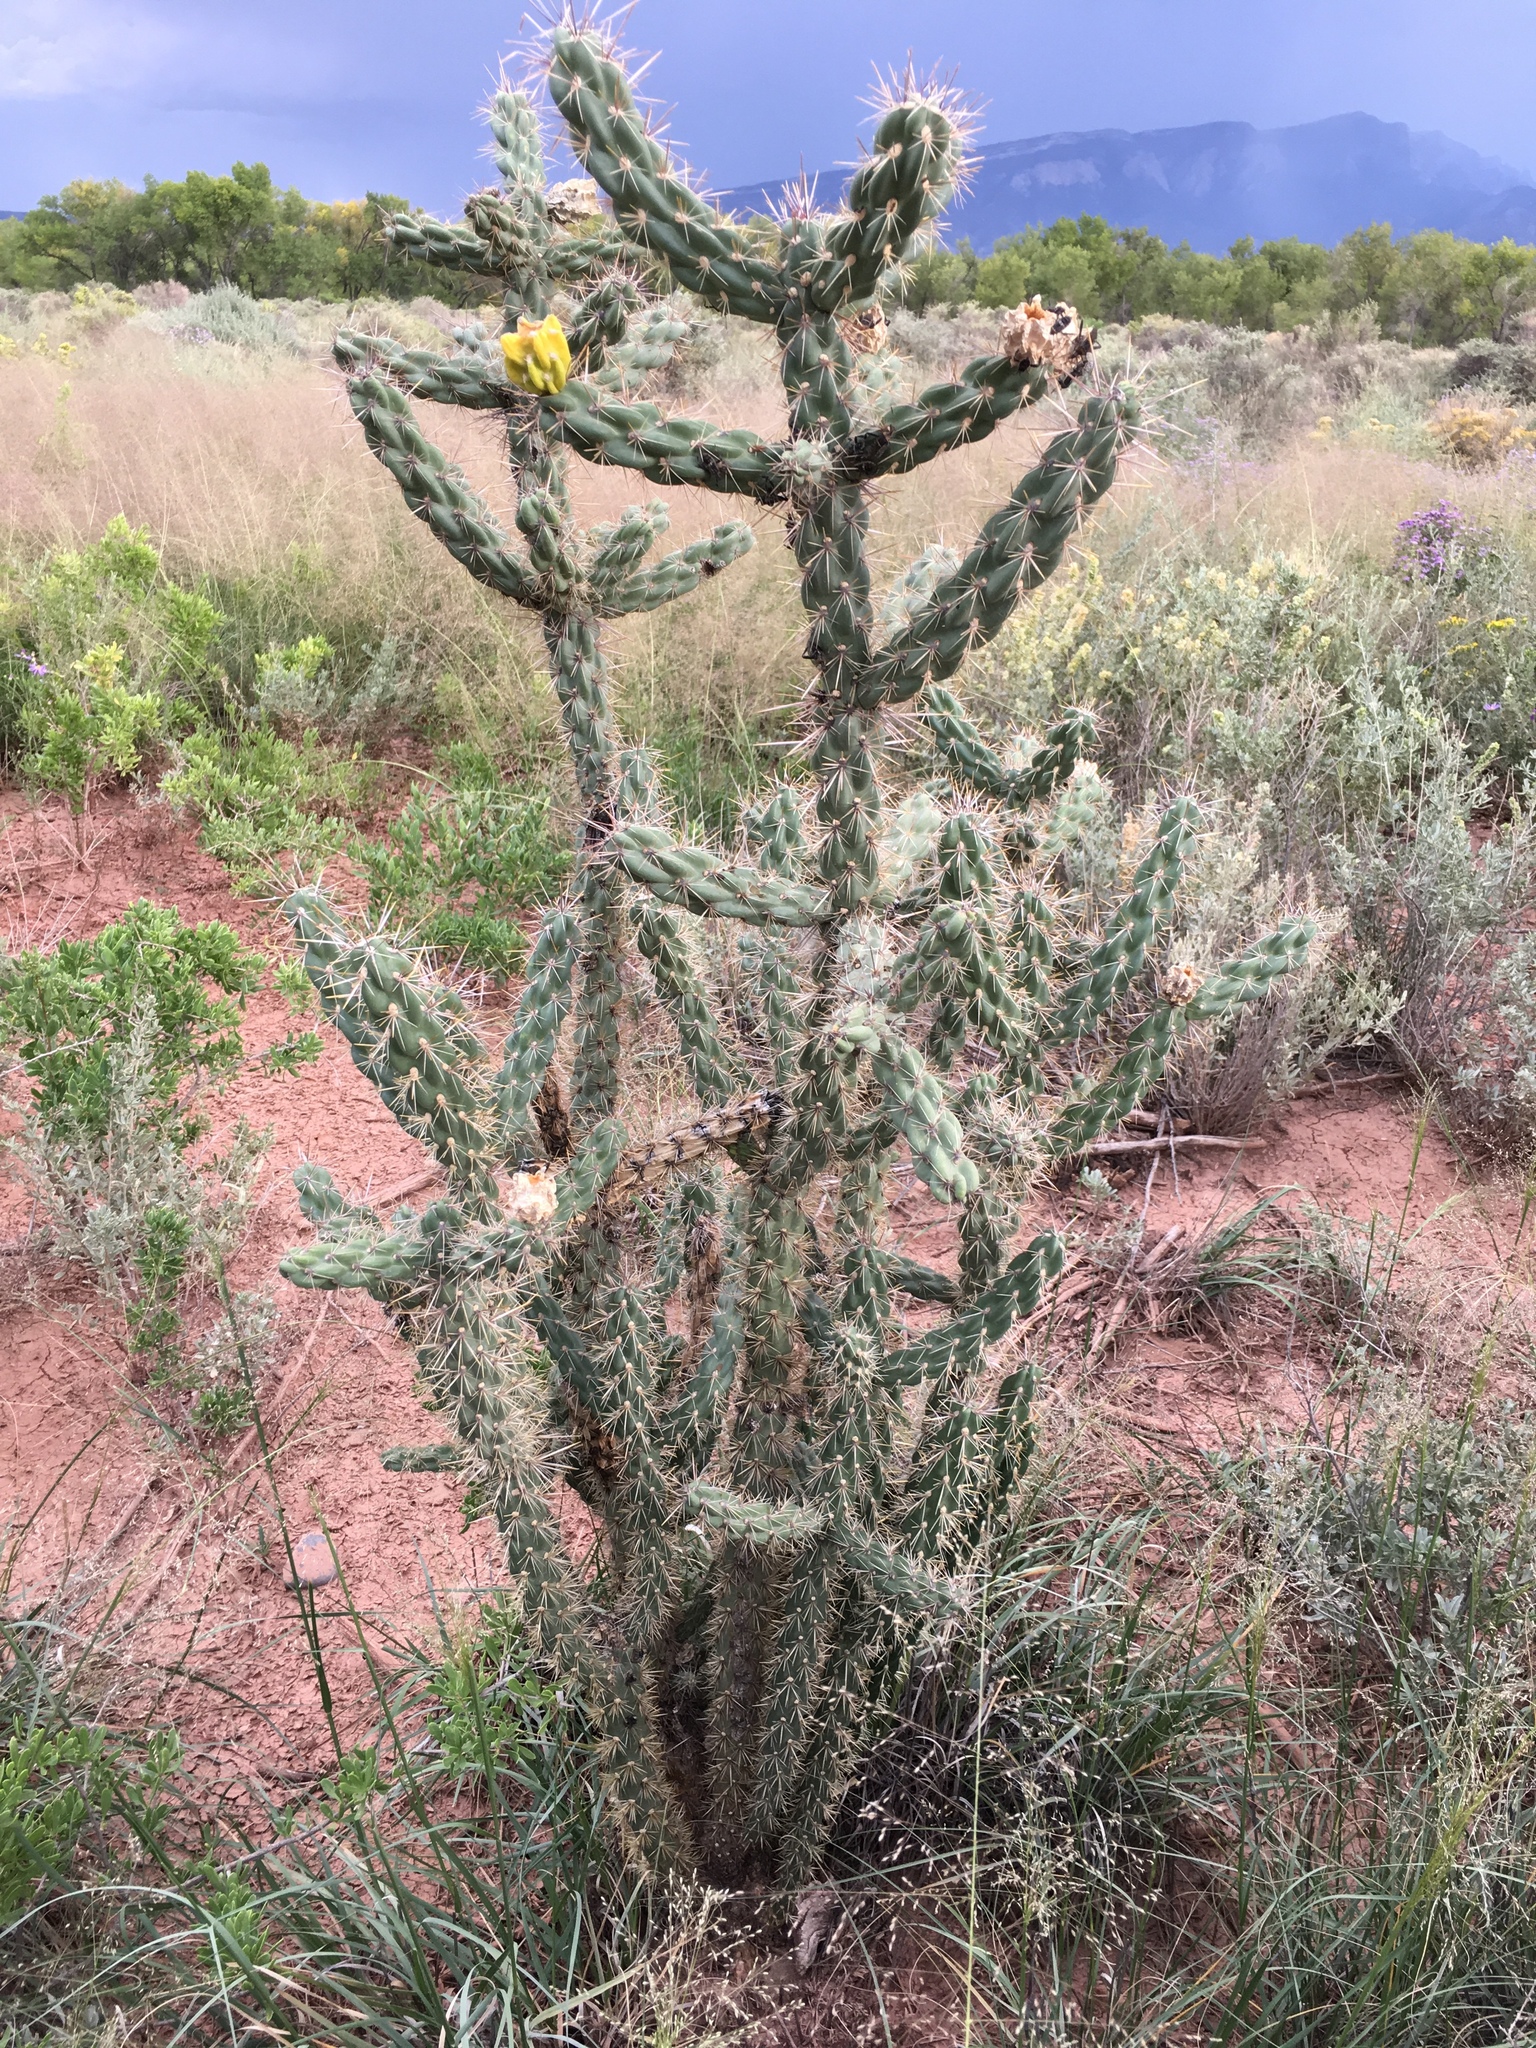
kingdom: Plantae
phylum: Tracheophyta
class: Magnoliopsida
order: Caryophyllales
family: Cactaceae
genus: Cylindropuntia
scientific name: Cylindropuntia imbricata
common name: Candelabrum cactus
